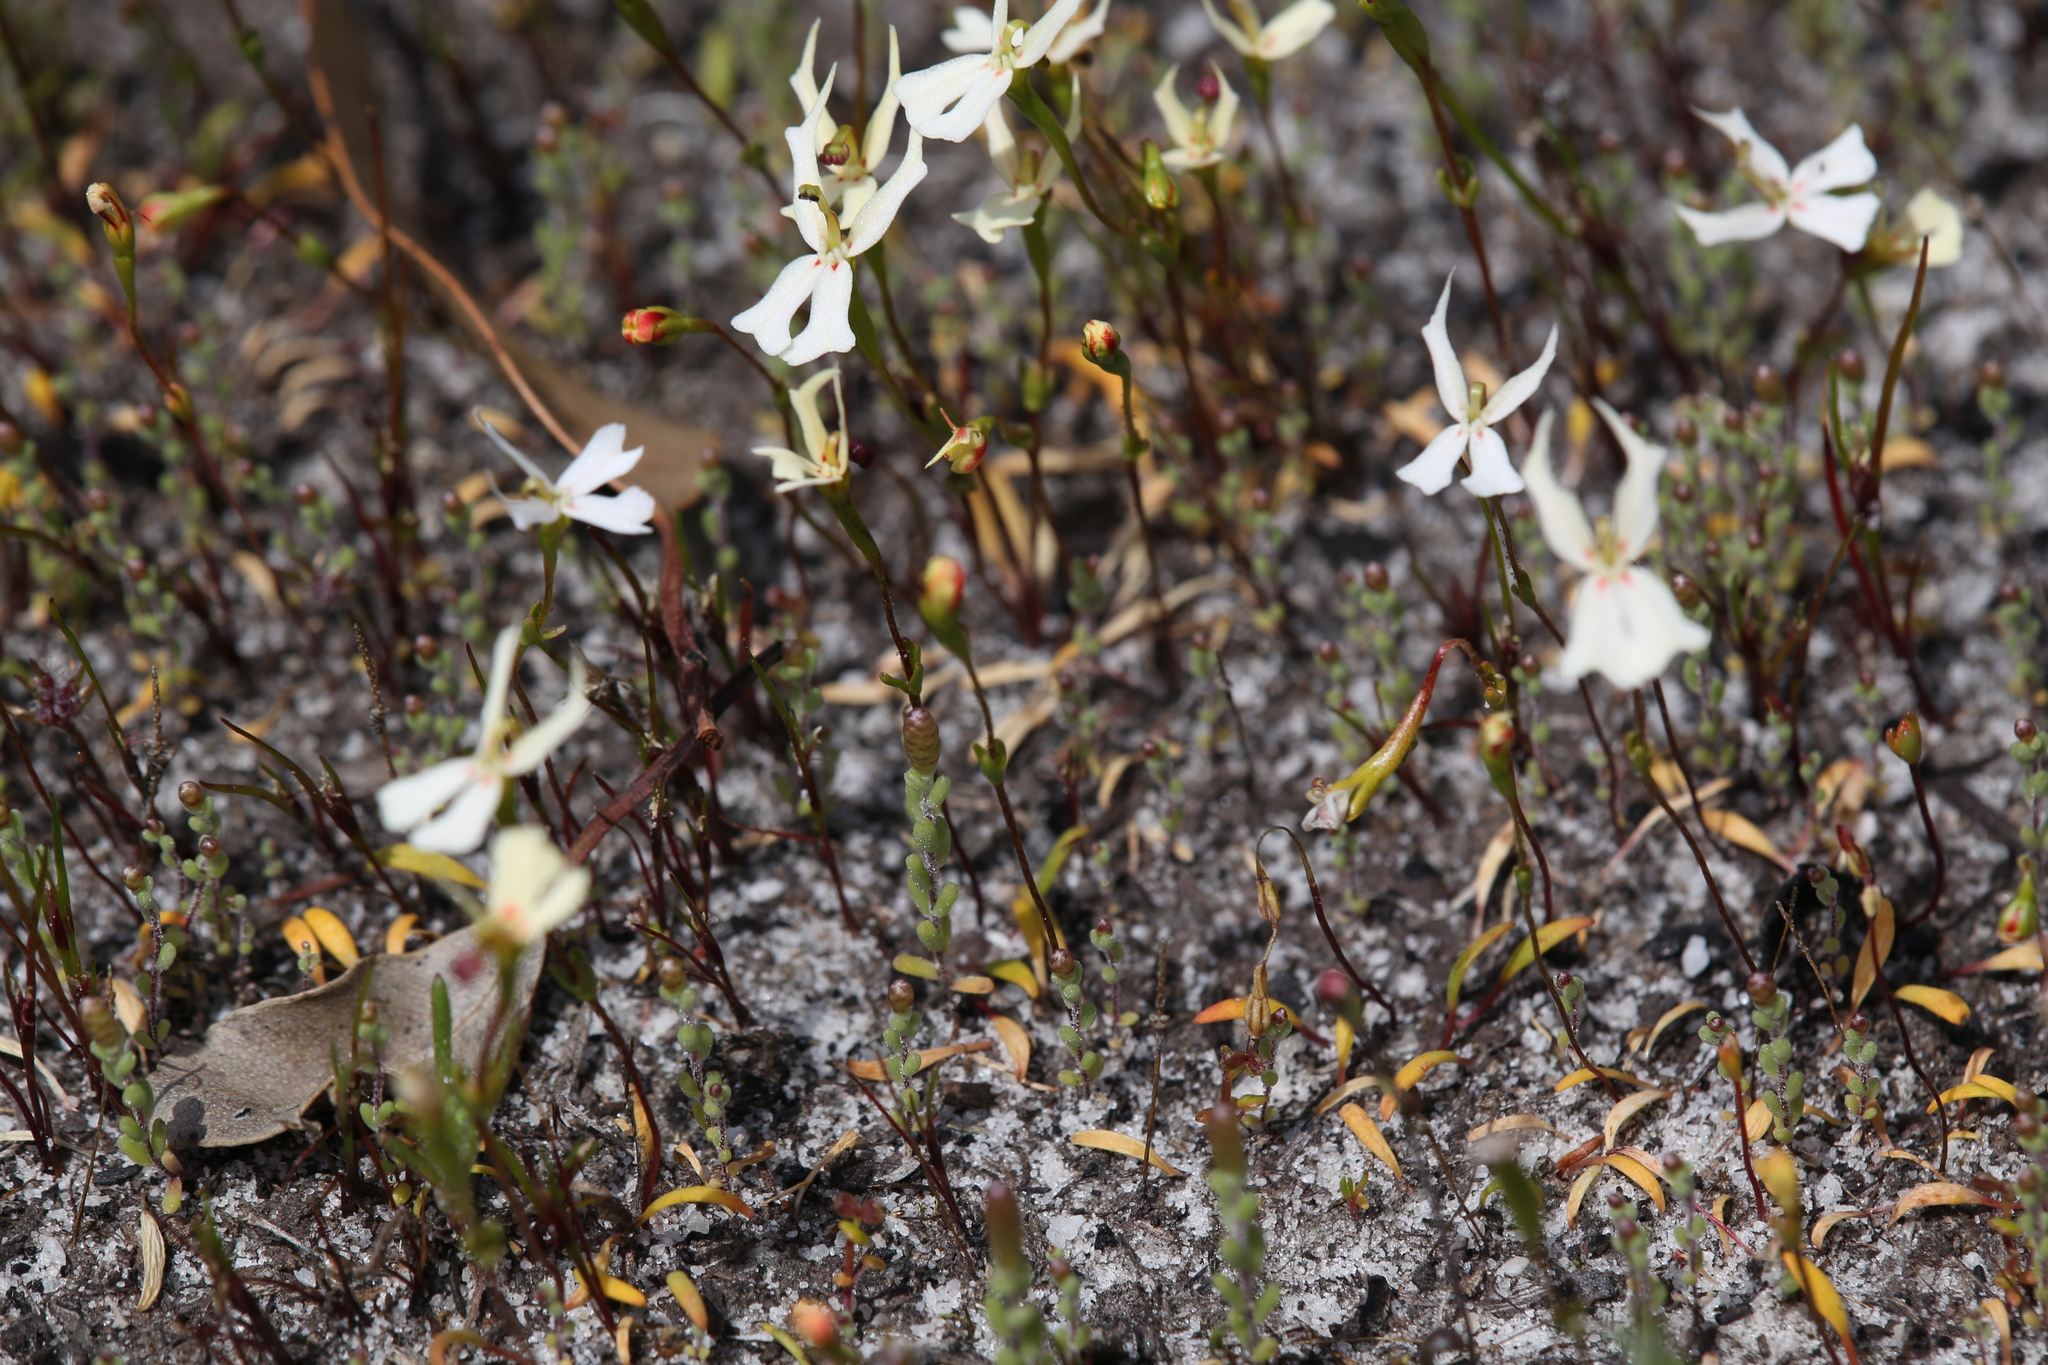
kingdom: Plantae
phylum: Tracheophyta
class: Magnoliopsida
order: Asterales
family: Stylidiaceae
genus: Stylidium
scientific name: Stylidium emarginatum
